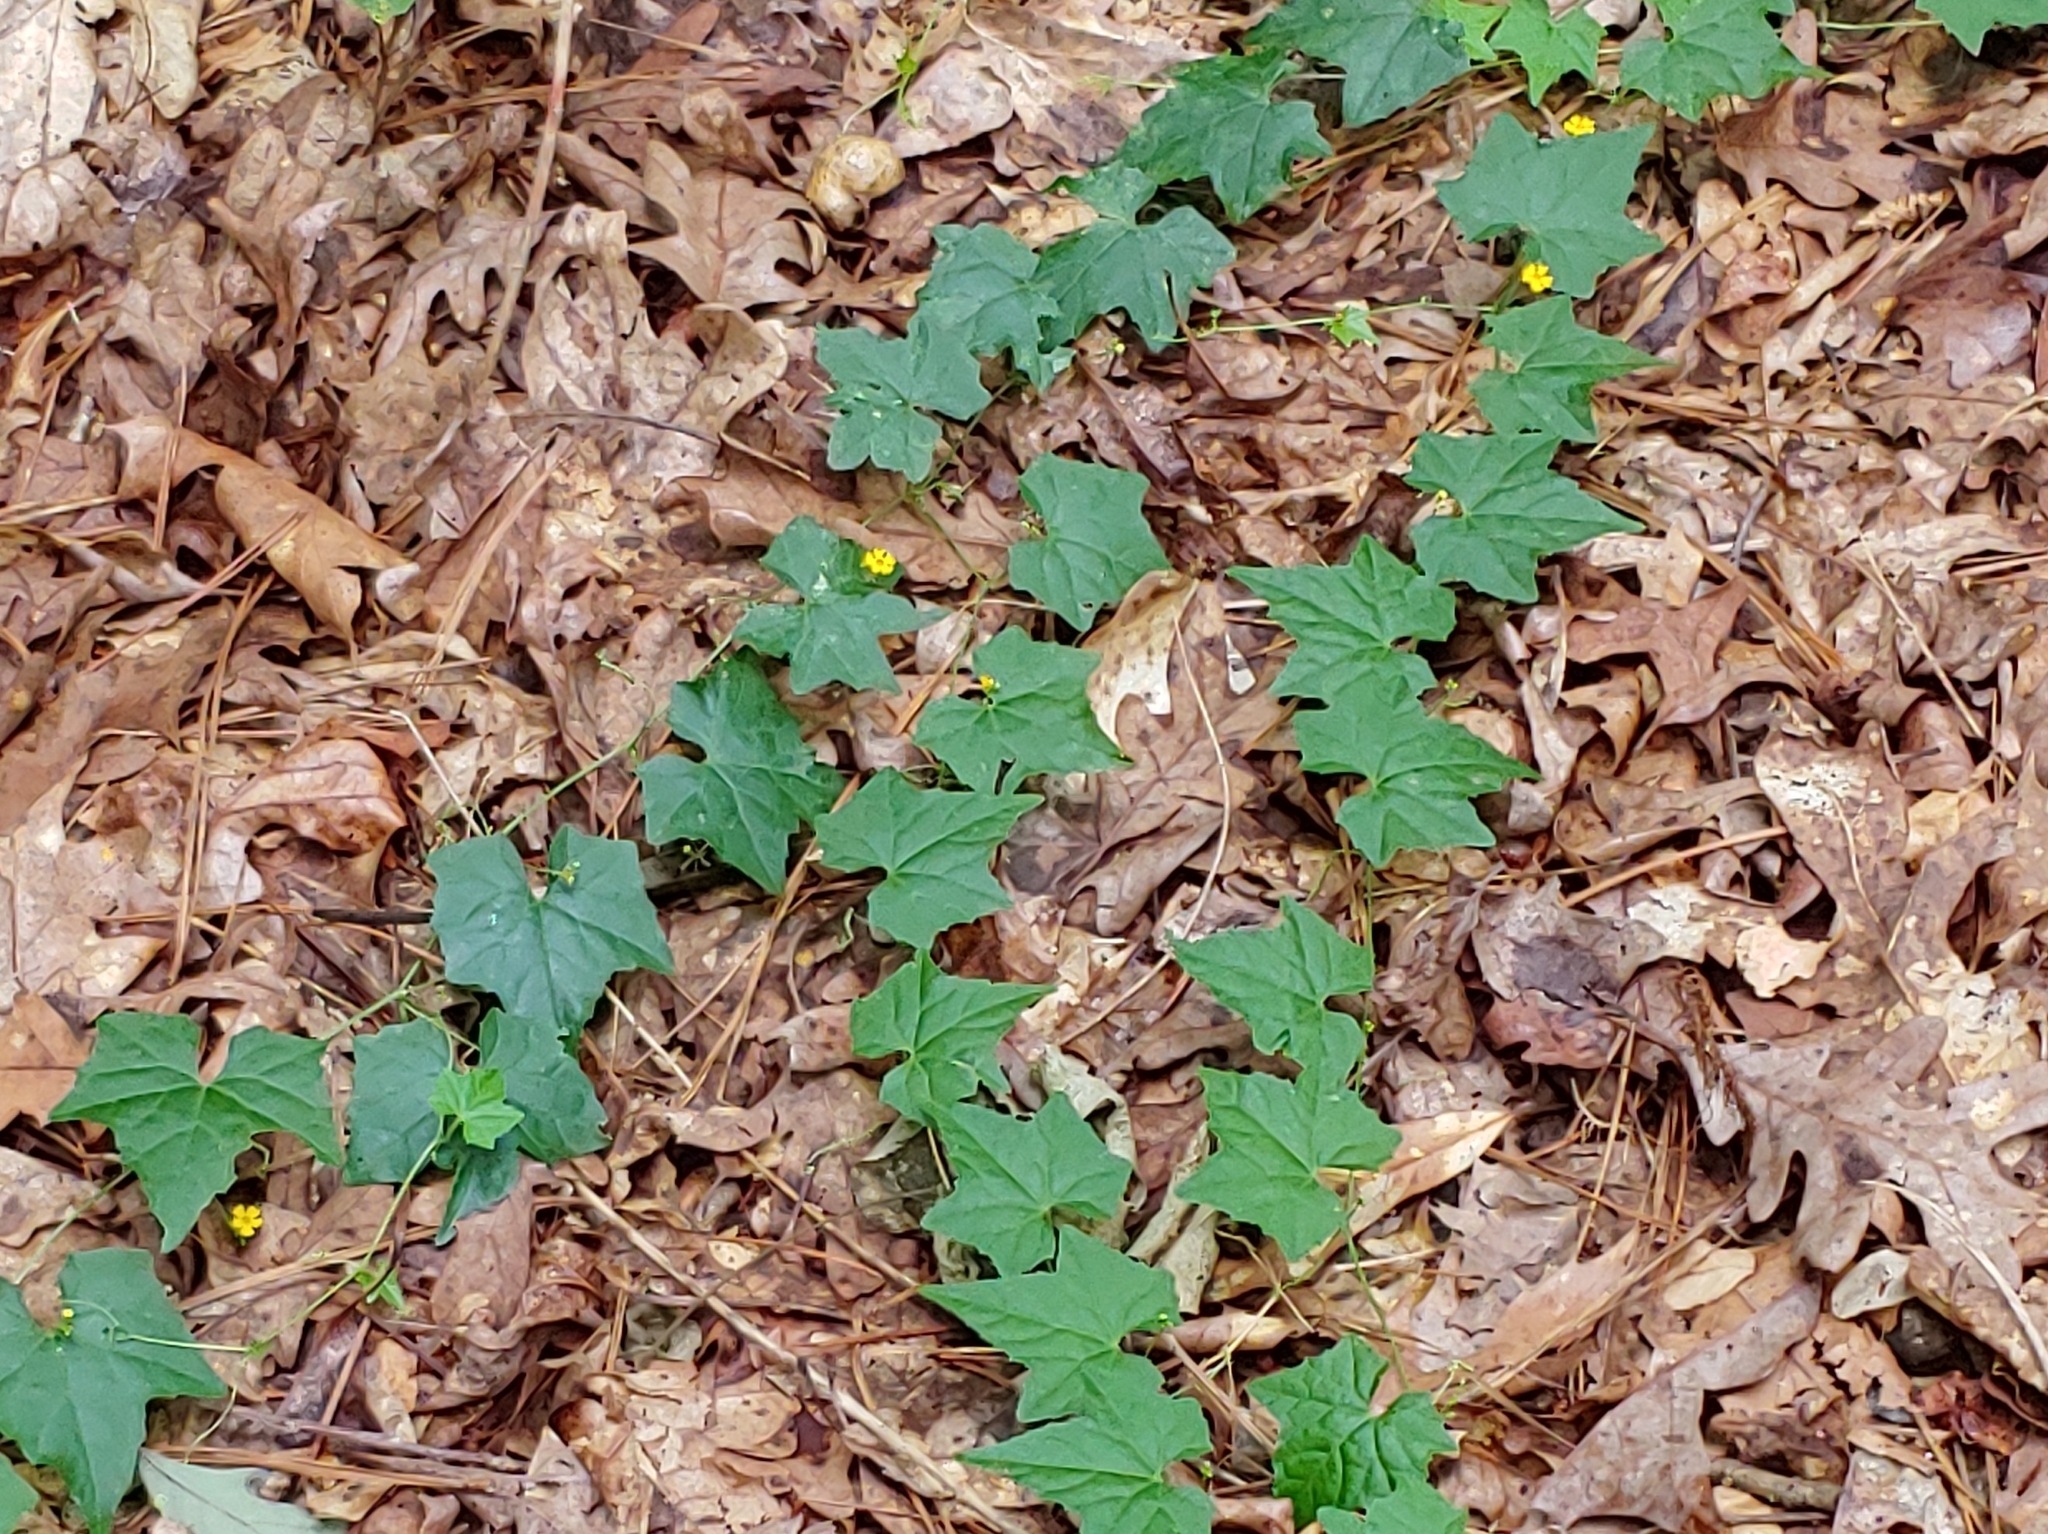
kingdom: Plantae
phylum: Tracheophyta
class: Magnoliopsida
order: Cucurbitales
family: Cucurbitaceae
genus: Melothria
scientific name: Melothria pendula
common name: Creeping-cucumber
